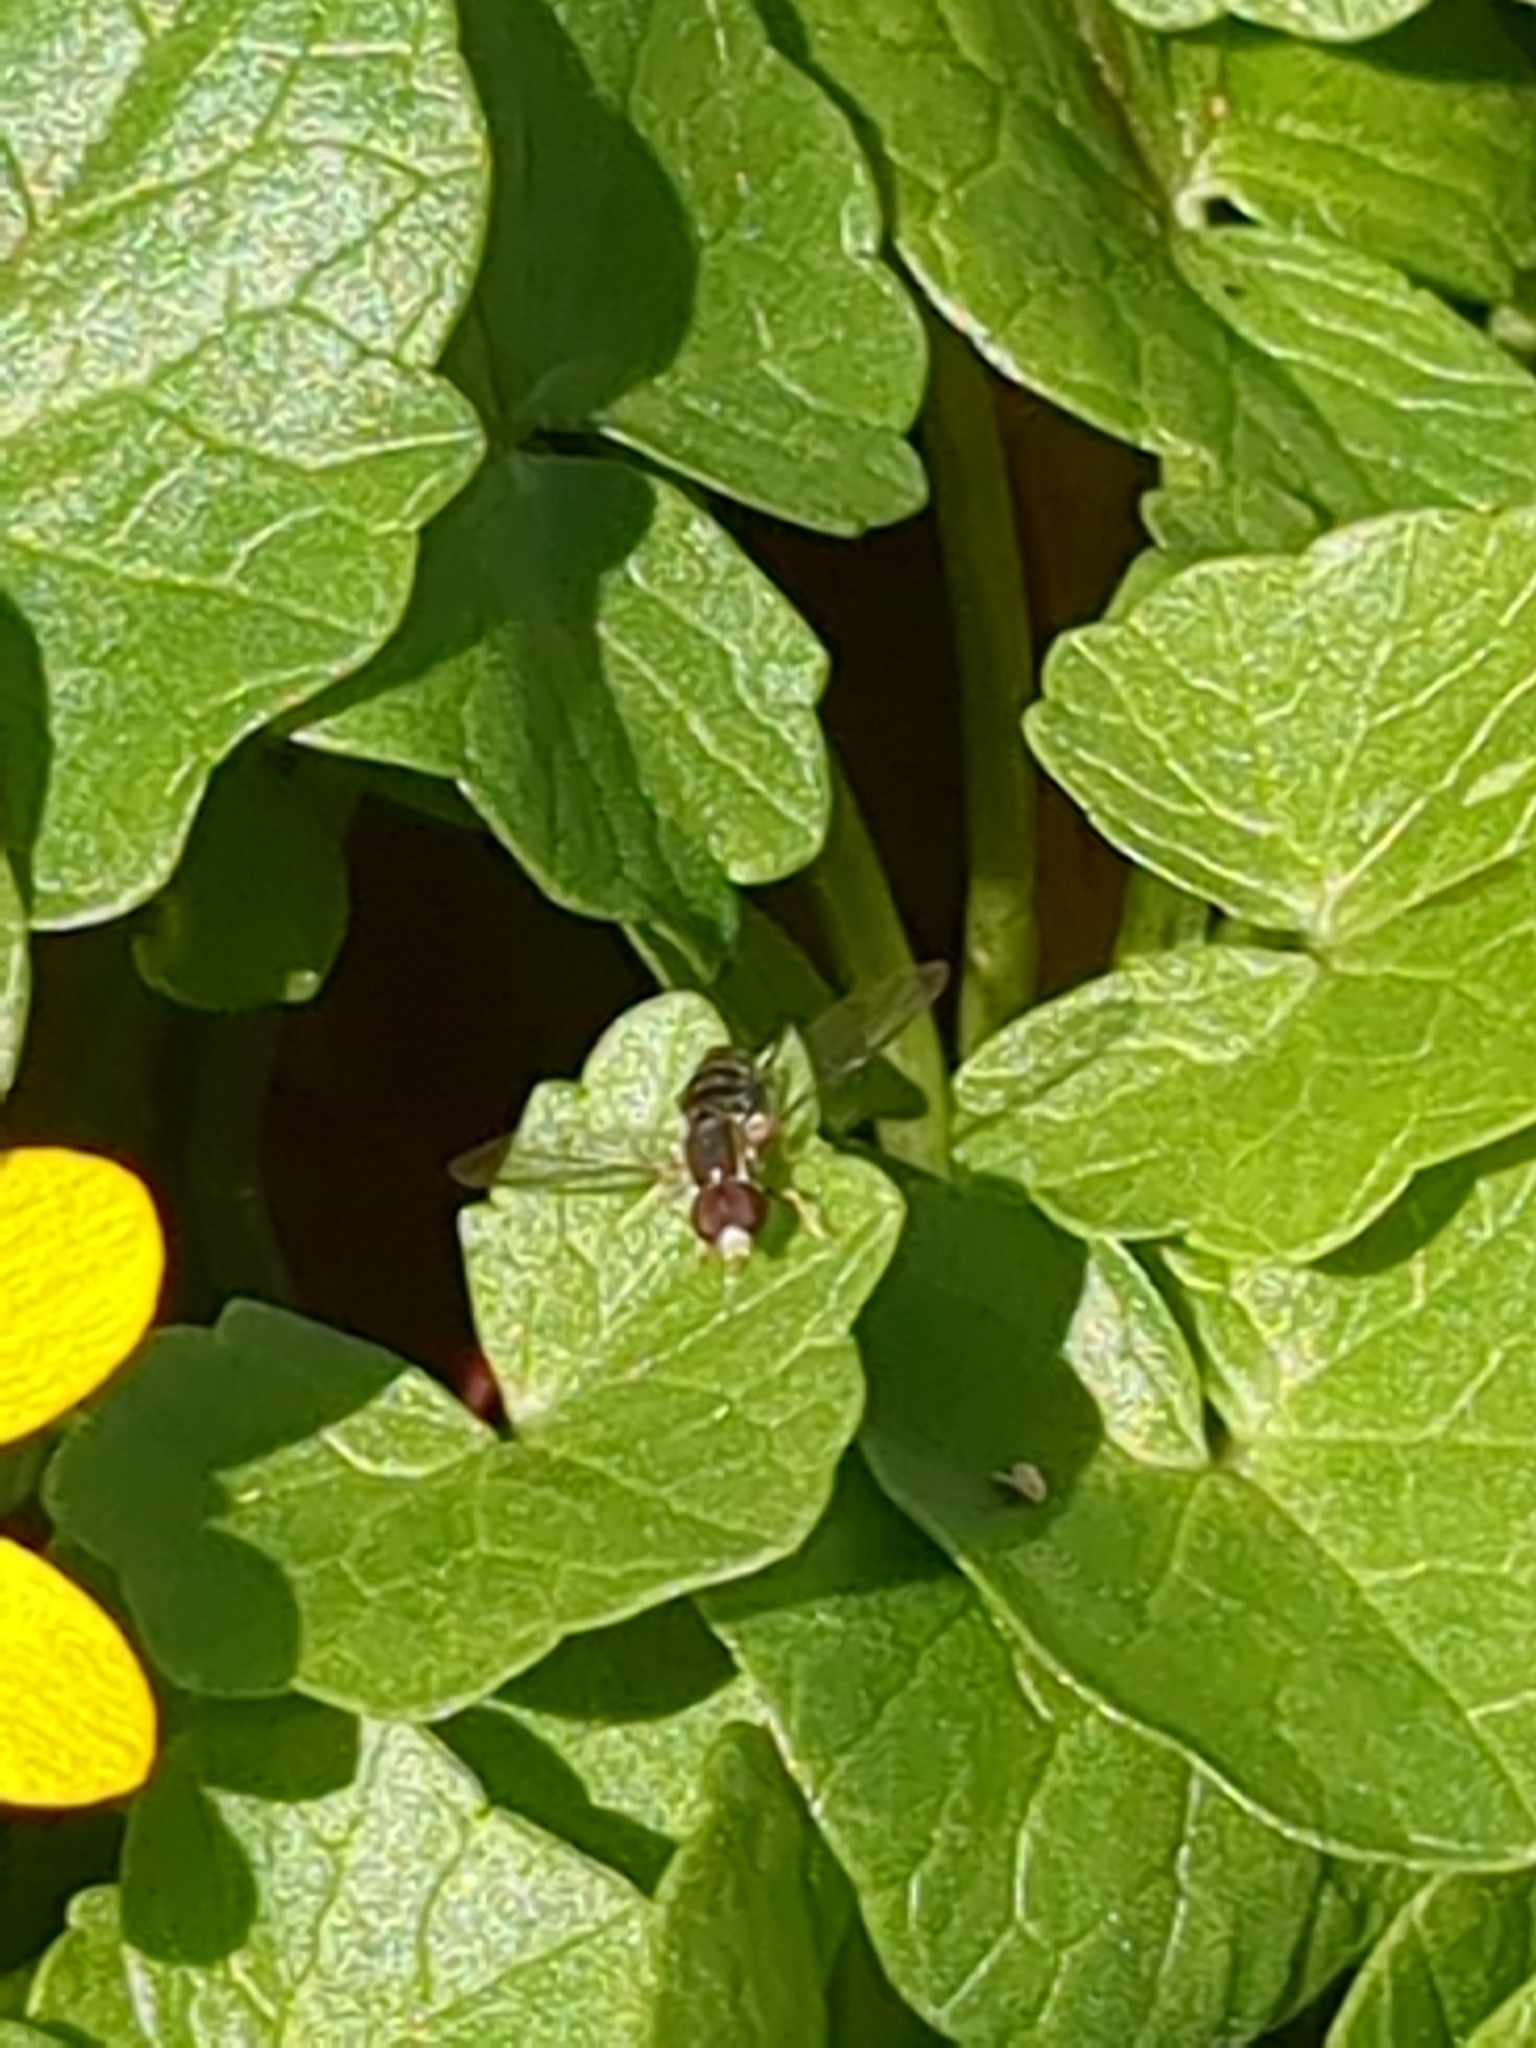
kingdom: Animalia
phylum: Arthropoda
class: Insecta
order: Diptera
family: Syrphidae
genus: Toxomerus
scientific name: Toxomerus geminatus
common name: Eastern calligrapher
